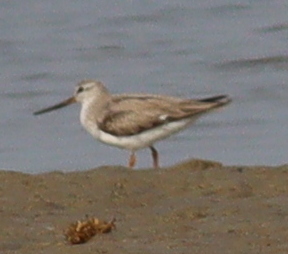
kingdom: Animalia
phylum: Chordata
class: Aves
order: Charadriiformes
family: Scolopacidae
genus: Xenus
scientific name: Xenus cinereus
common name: Terek sandpiper
